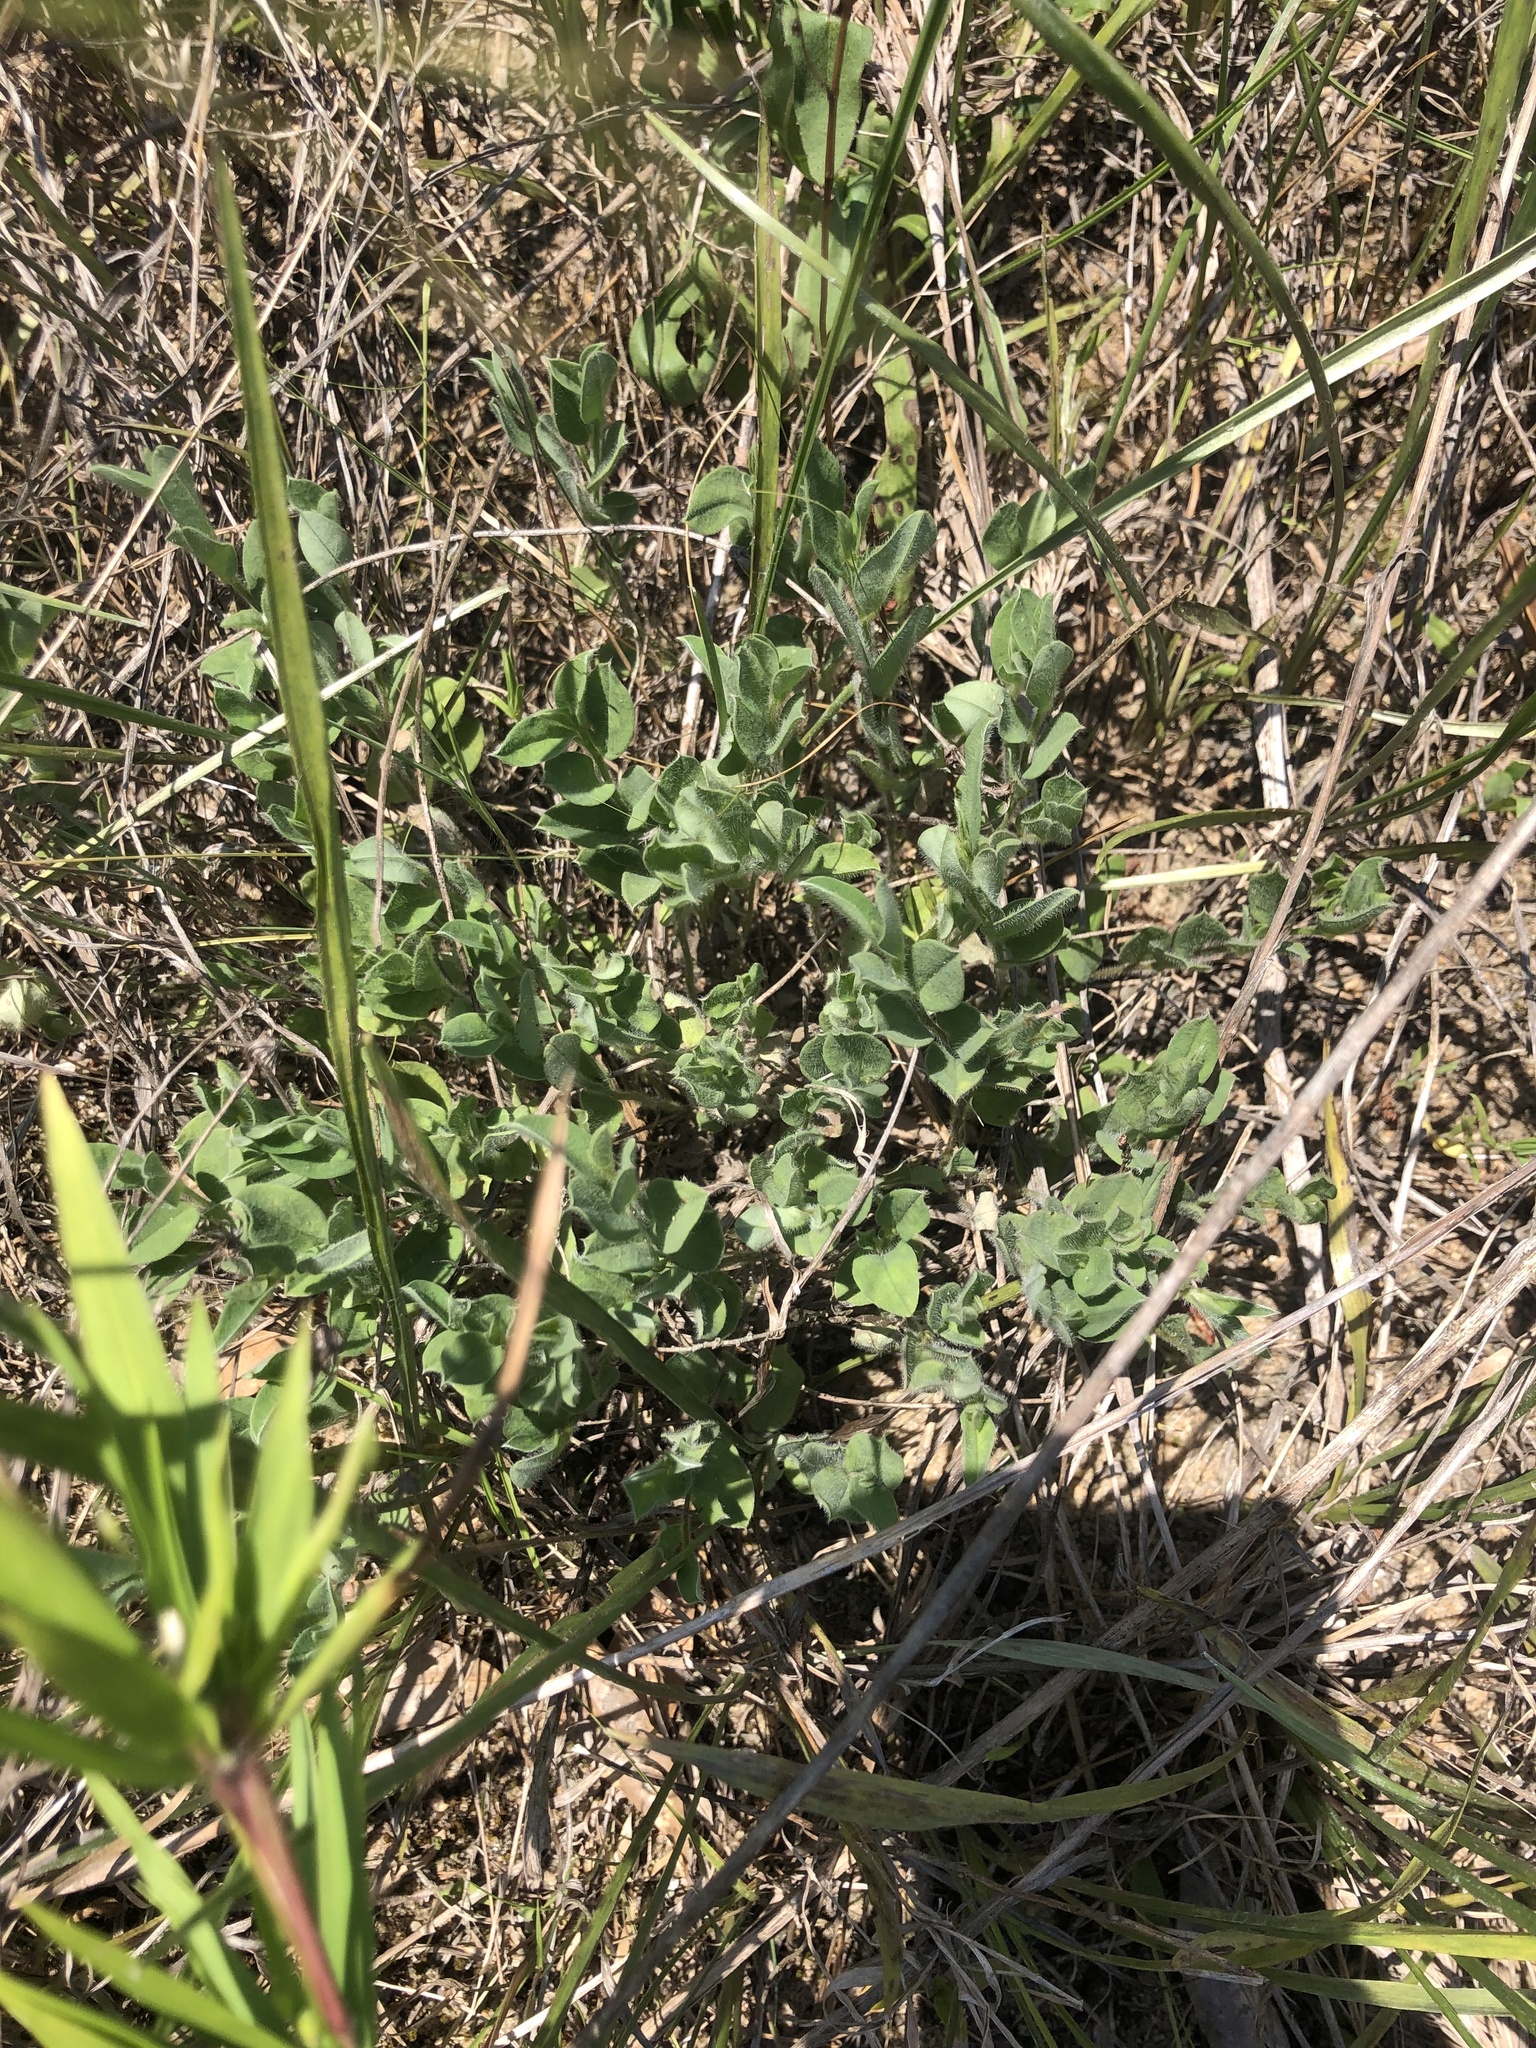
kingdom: Plantae
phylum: Tracheophyta
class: Magnoliopsida
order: Fabales
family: Fabaceae
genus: Crotalaria
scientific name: Crotalaria rotundifolia
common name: Prostrate rattlebox
